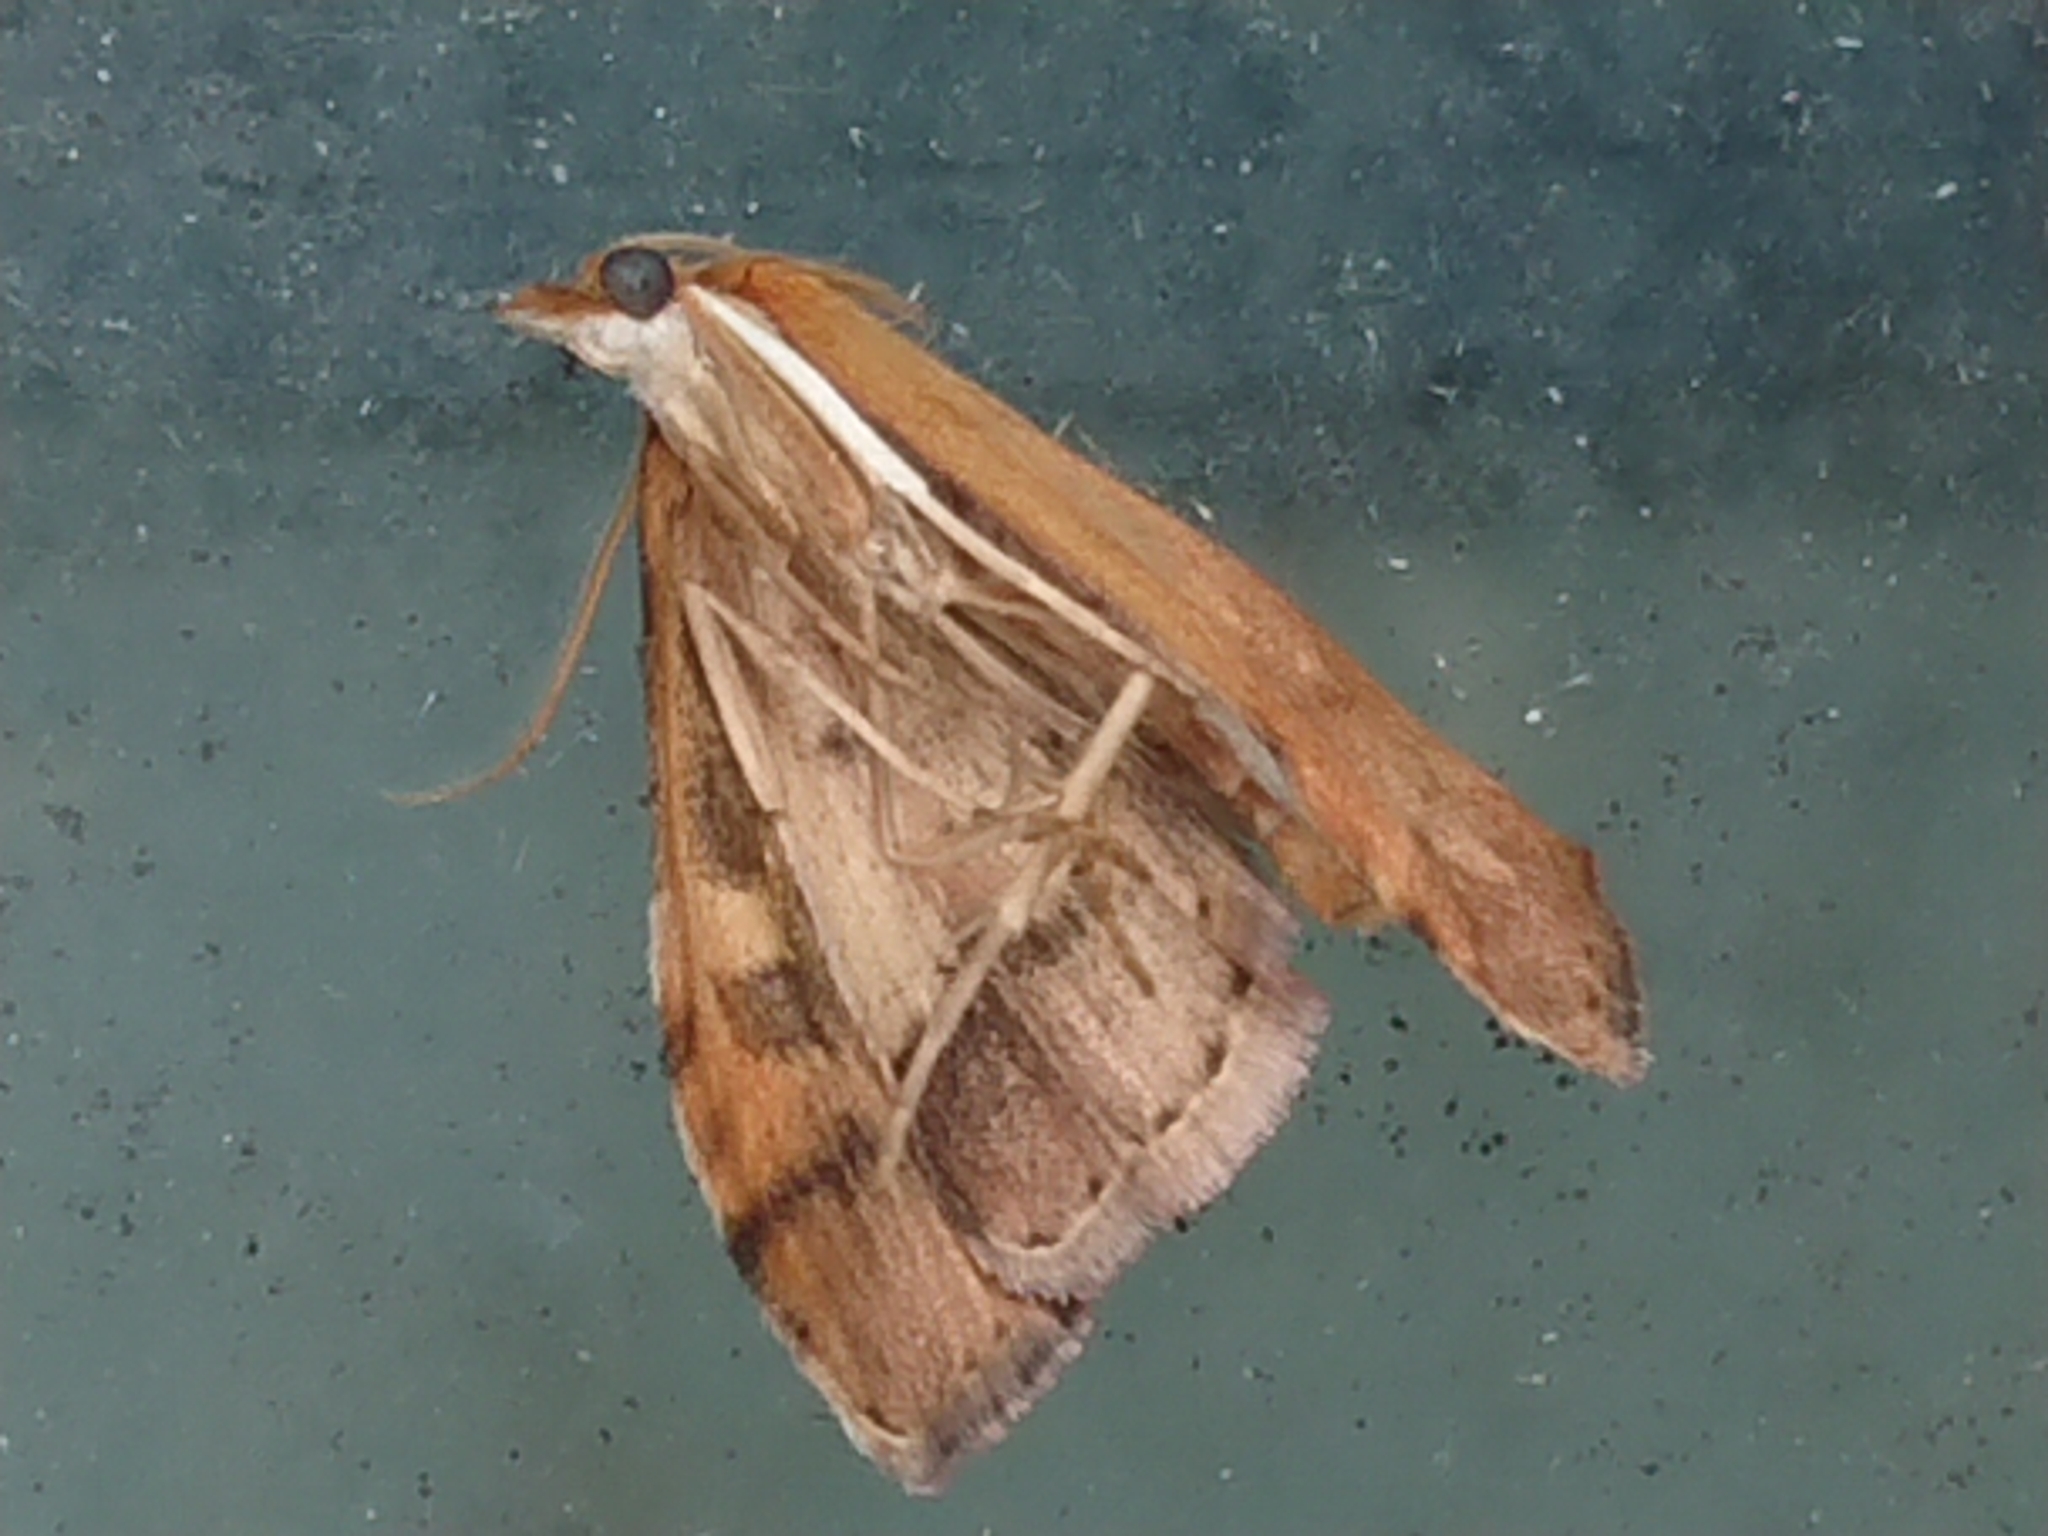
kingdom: Animalia
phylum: Arthropoda
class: Insecta
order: Lepidoptera
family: Crambidae
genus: Udea
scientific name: Udea Mnesictena flavidalis
